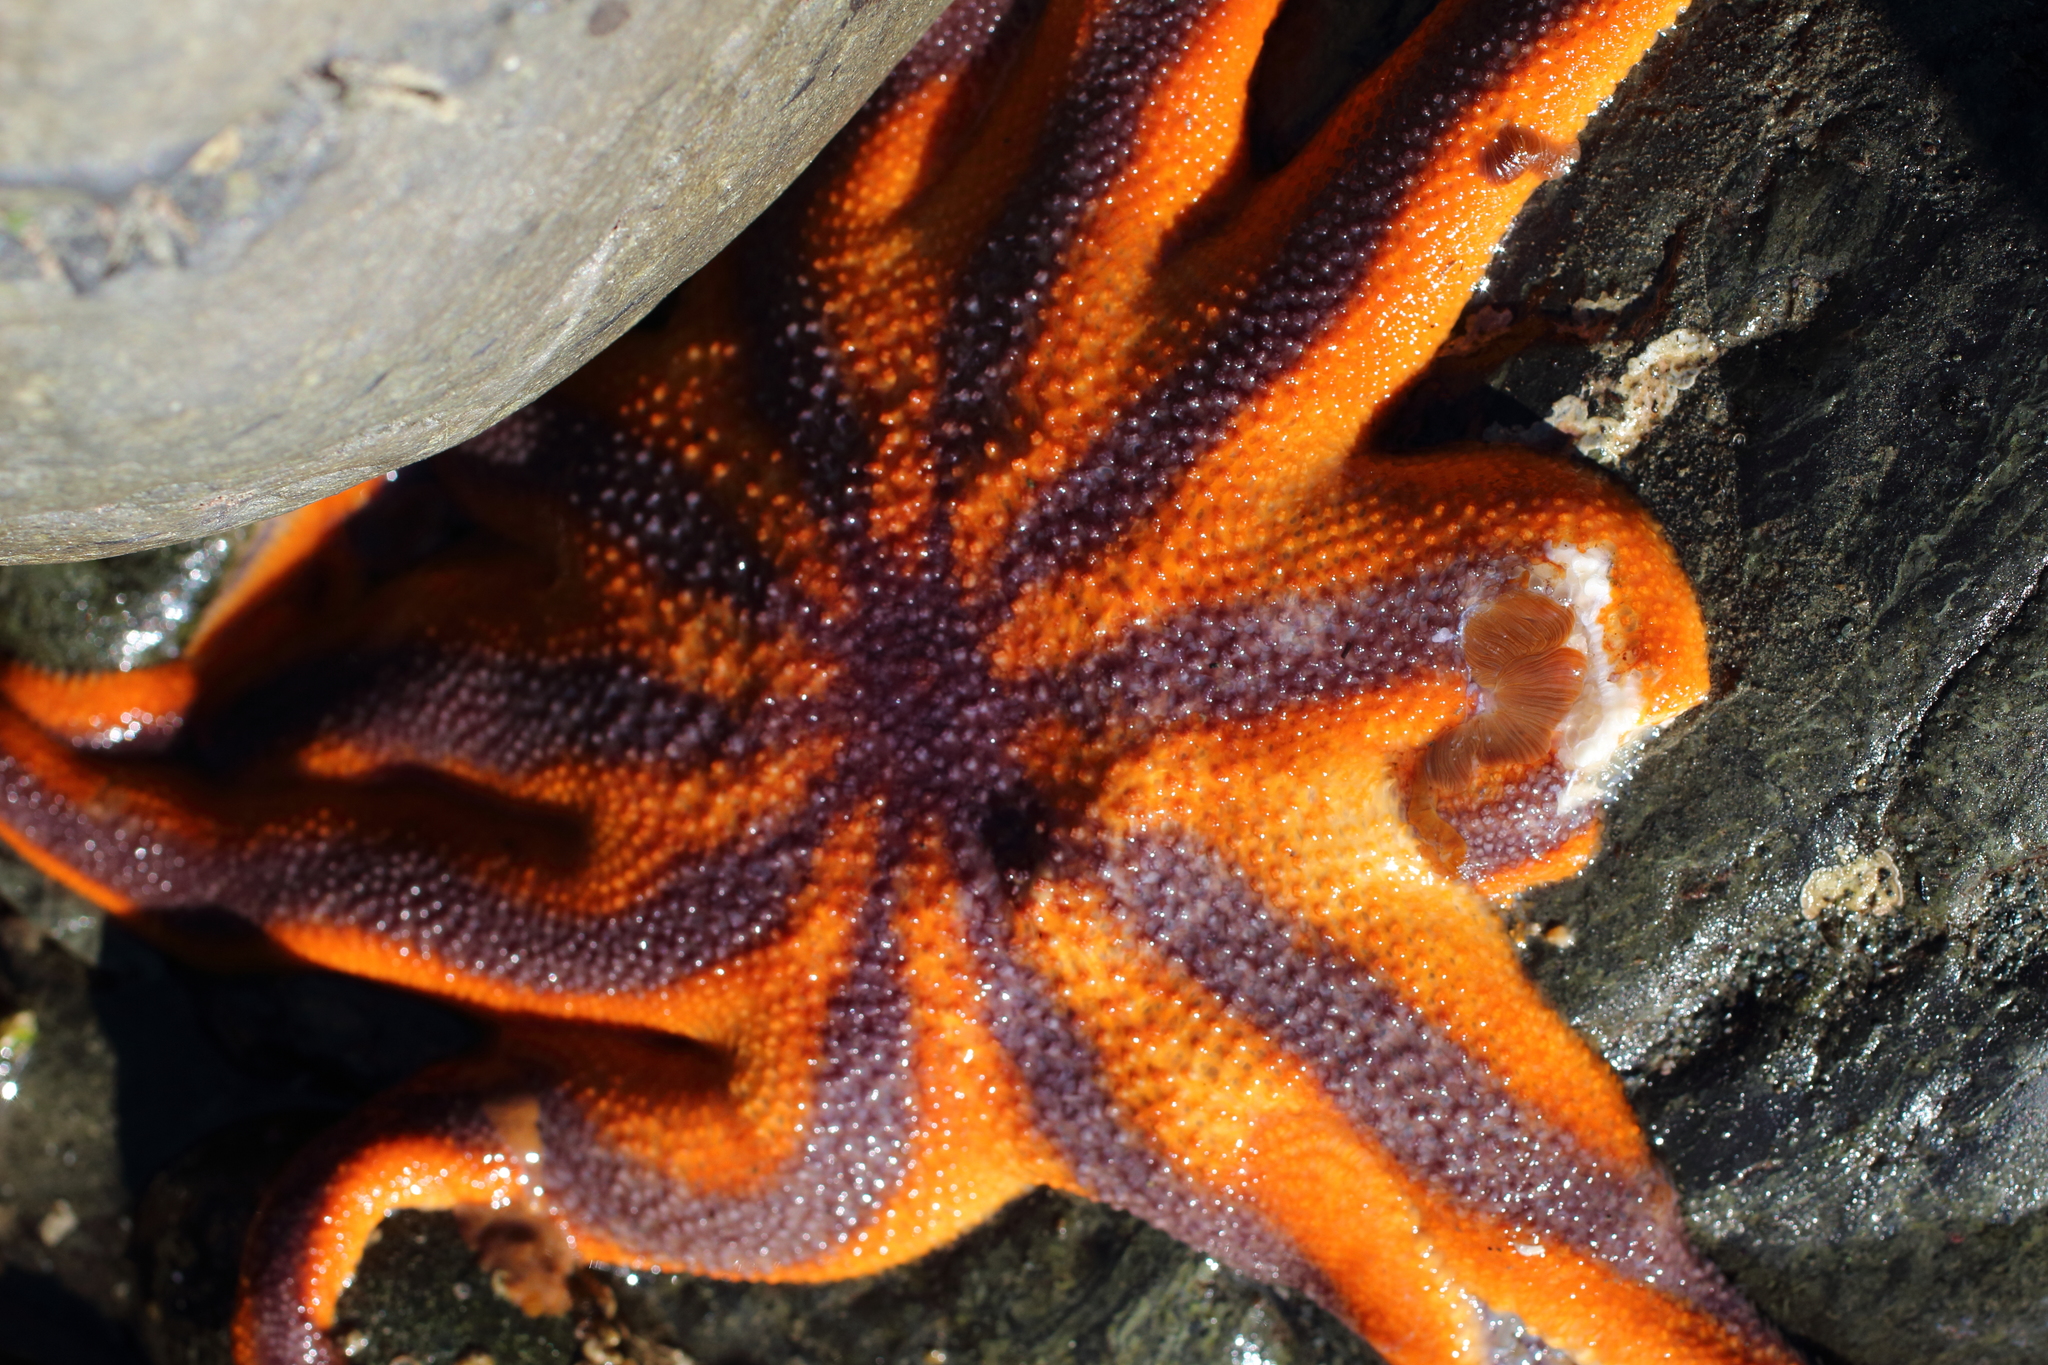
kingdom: Animalia
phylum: Echinodermata
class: Asteroidea
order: Valvatida
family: Solasteridae
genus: Solaster
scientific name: Solaster pacificus
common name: Northern sunstar
